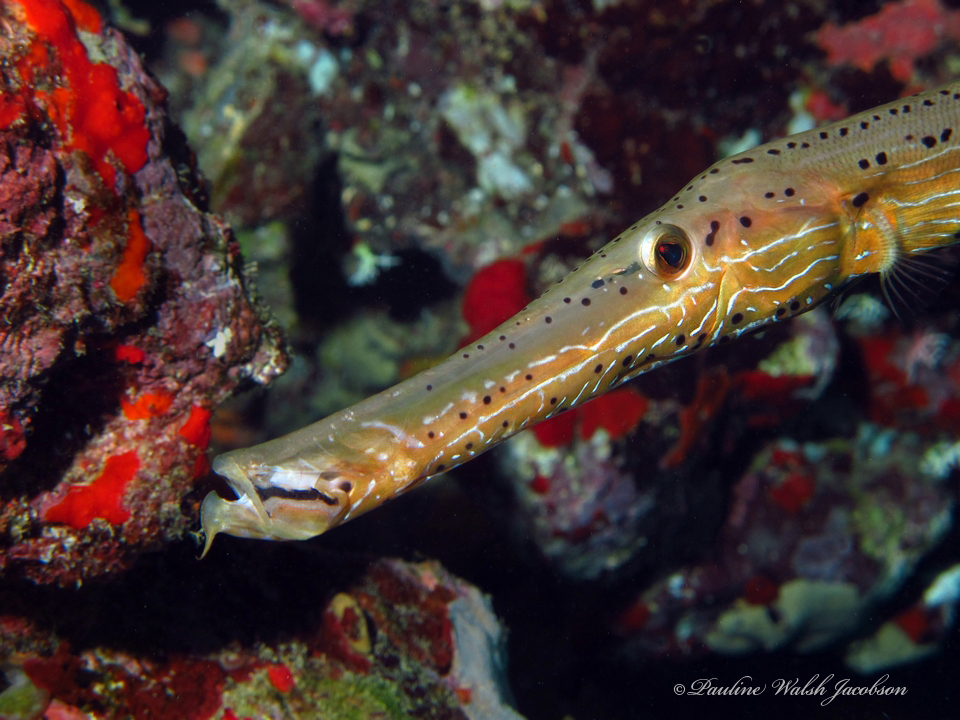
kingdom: Animalia
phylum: Chordata
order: Syngnathiformes
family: Aulostomidae
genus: Aulostomus
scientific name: Aulostomus maculatus
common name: West atlantic trumpetfish
